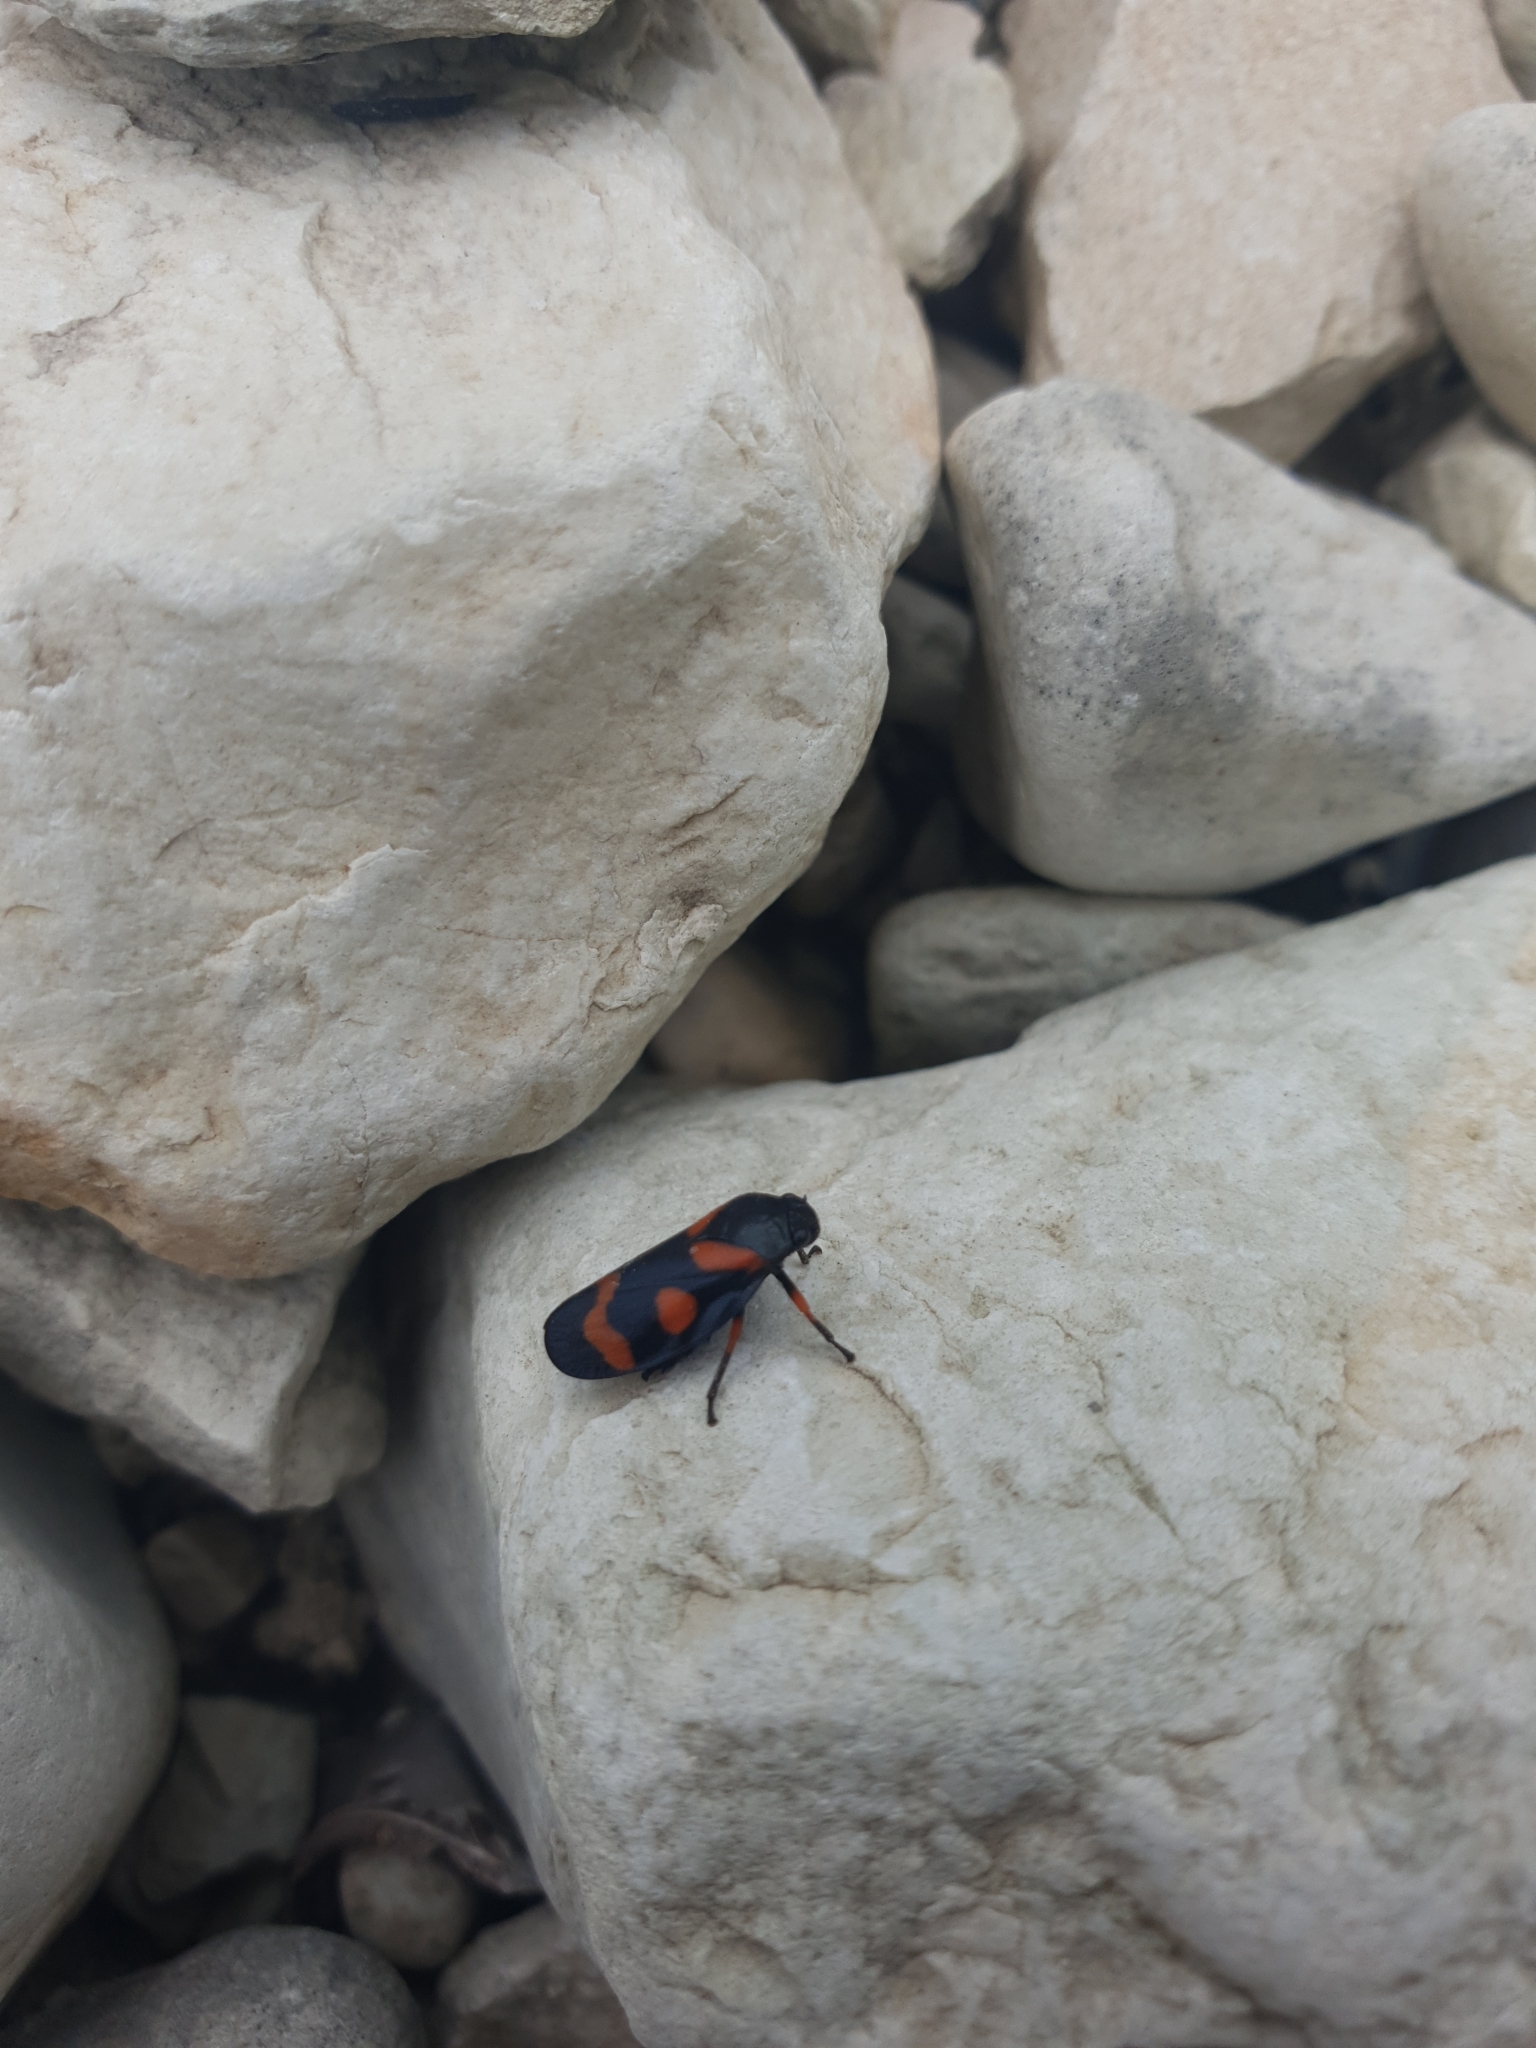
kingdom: Animalia
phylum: Arthropoda
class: Insecta
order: Hemiptera
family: Cercopidae
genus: Cercopis
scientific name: Cercopis intermedia
